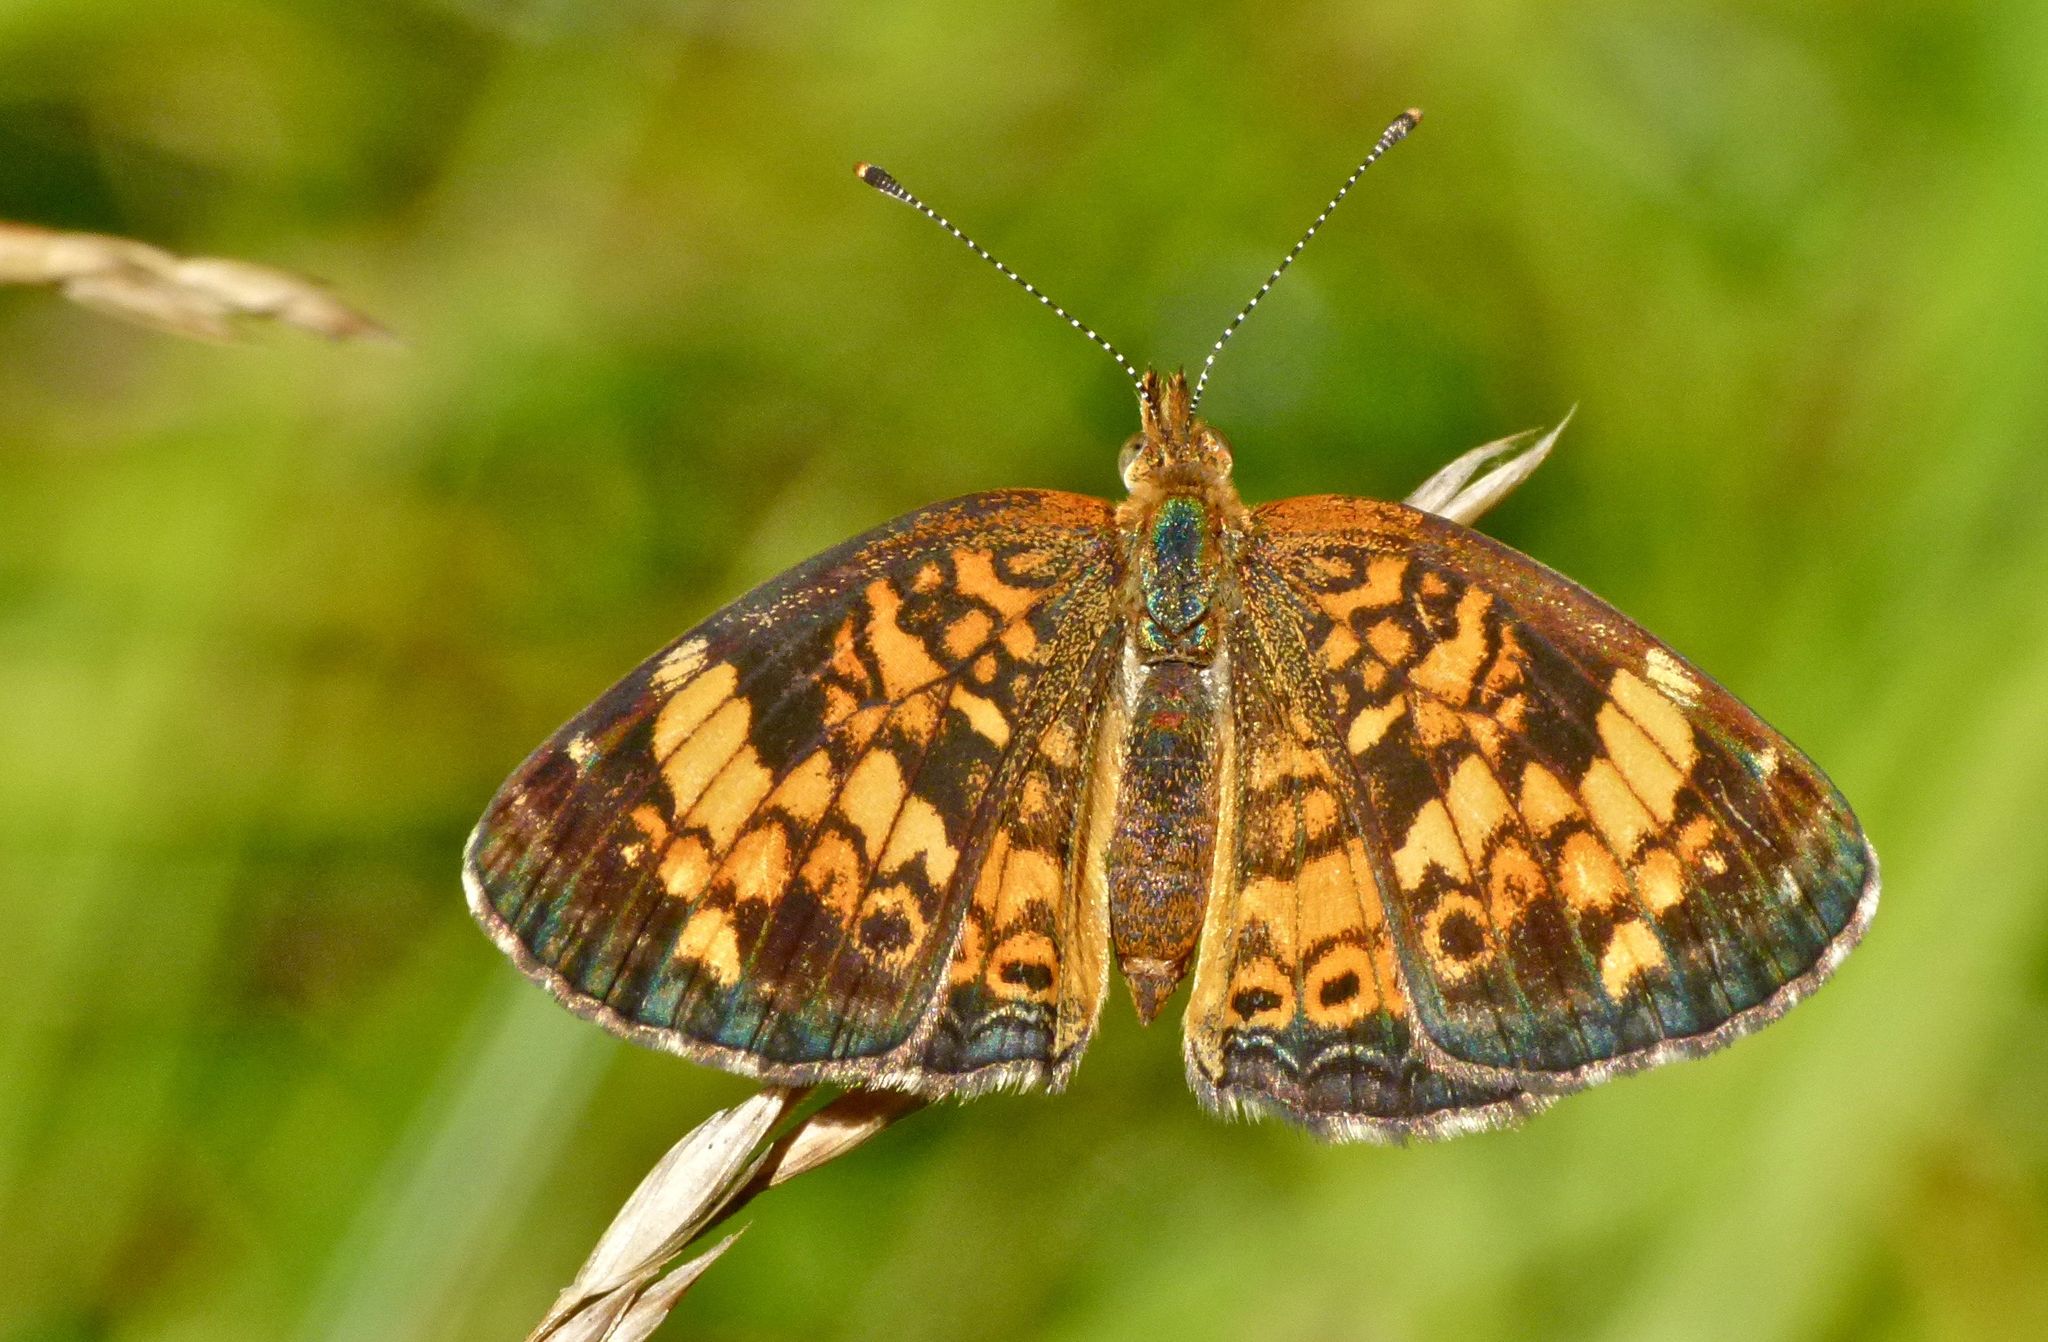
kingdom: Animalia
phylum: Arthropoda
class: Insecta
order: Lepidoptera
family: Nymphalidae
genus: Phyciodes
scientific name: Phyciodes tharos
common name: Pearl crescent
